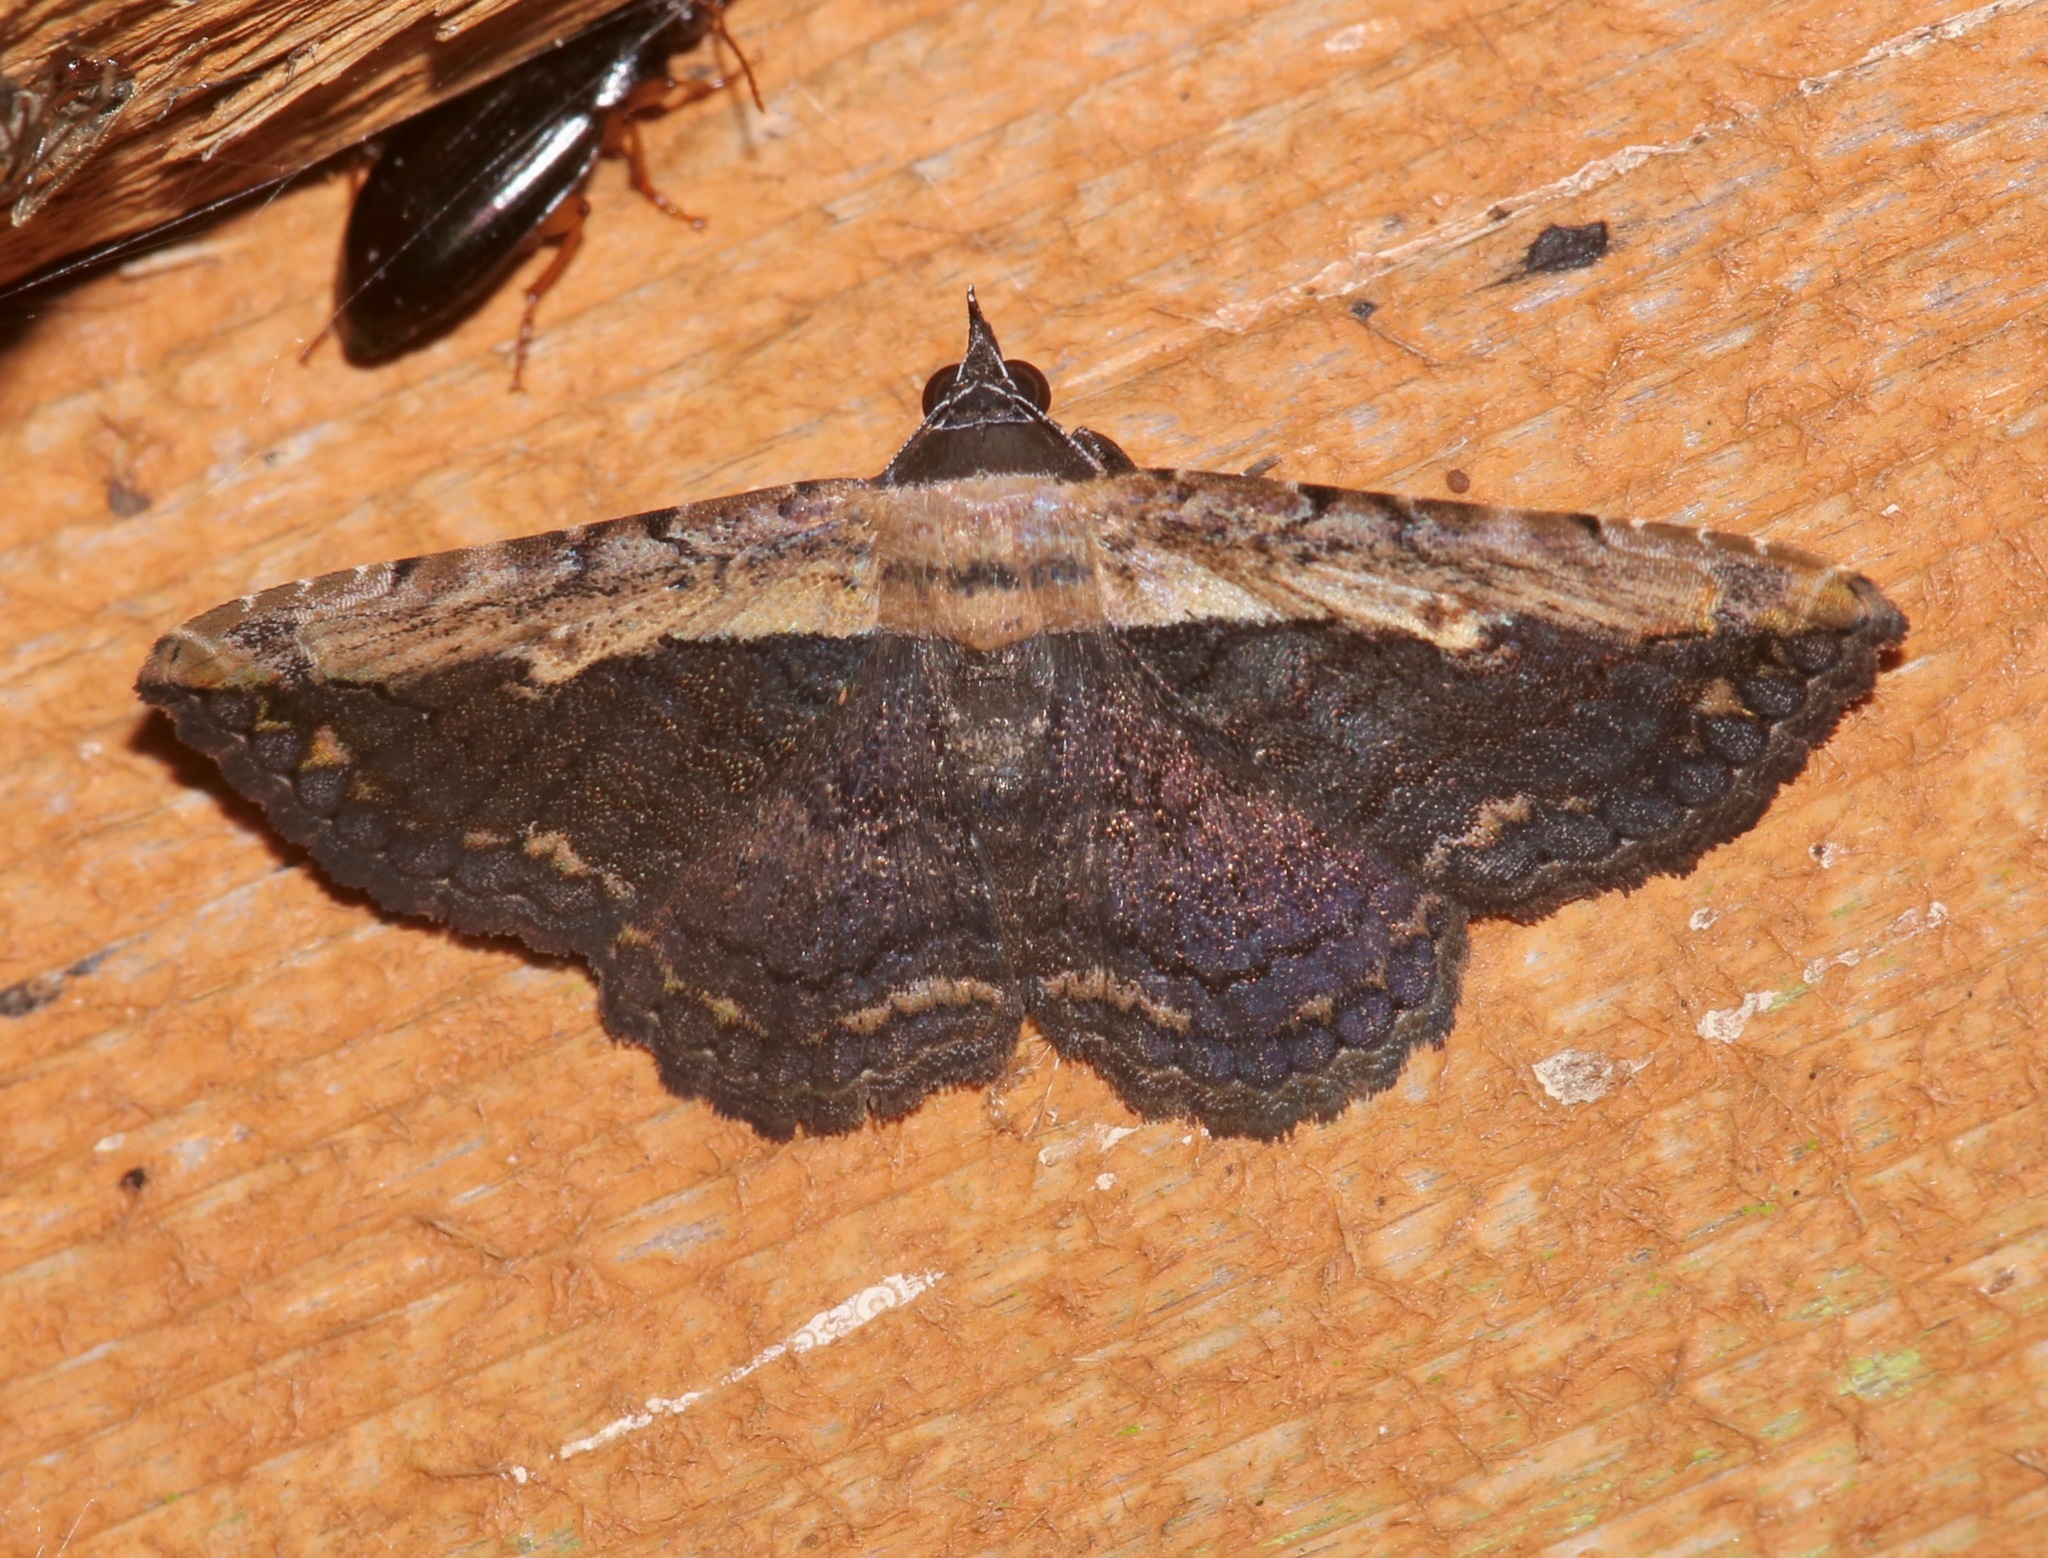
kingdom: Animalia
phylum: Arthropoda
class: Insecta
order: Lepidoptera
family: Erebidae
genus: Selenisa
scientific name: Selenisa sueroides
